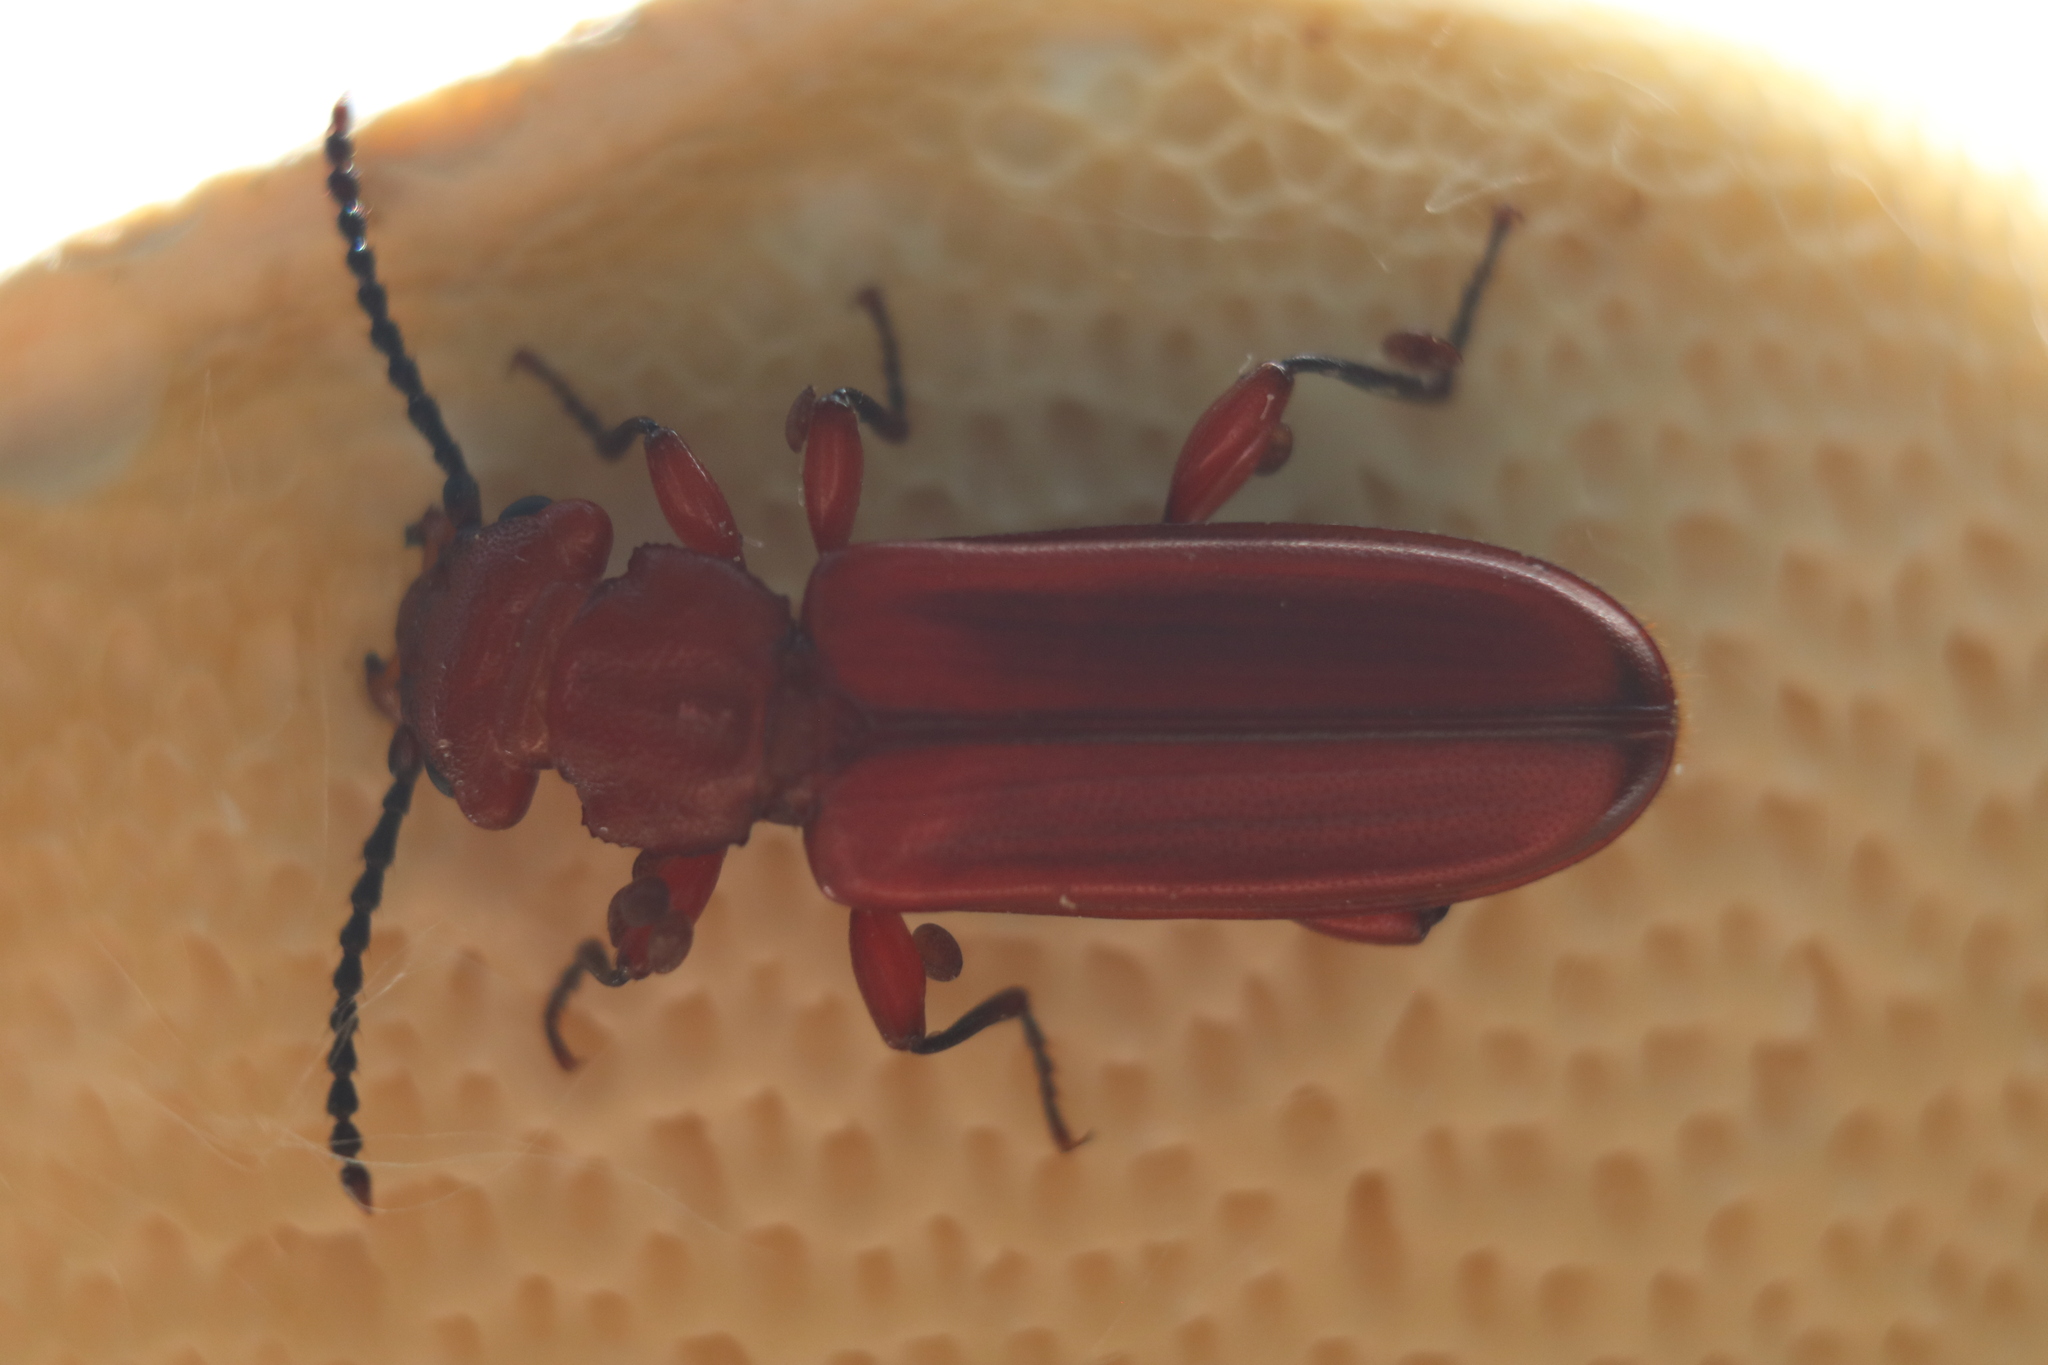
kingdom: Animalia
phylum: Arthropoda
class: Insecta
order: Coleoptera
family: Cucujidae
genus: Cucujus
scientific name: Cucujus clavipes
